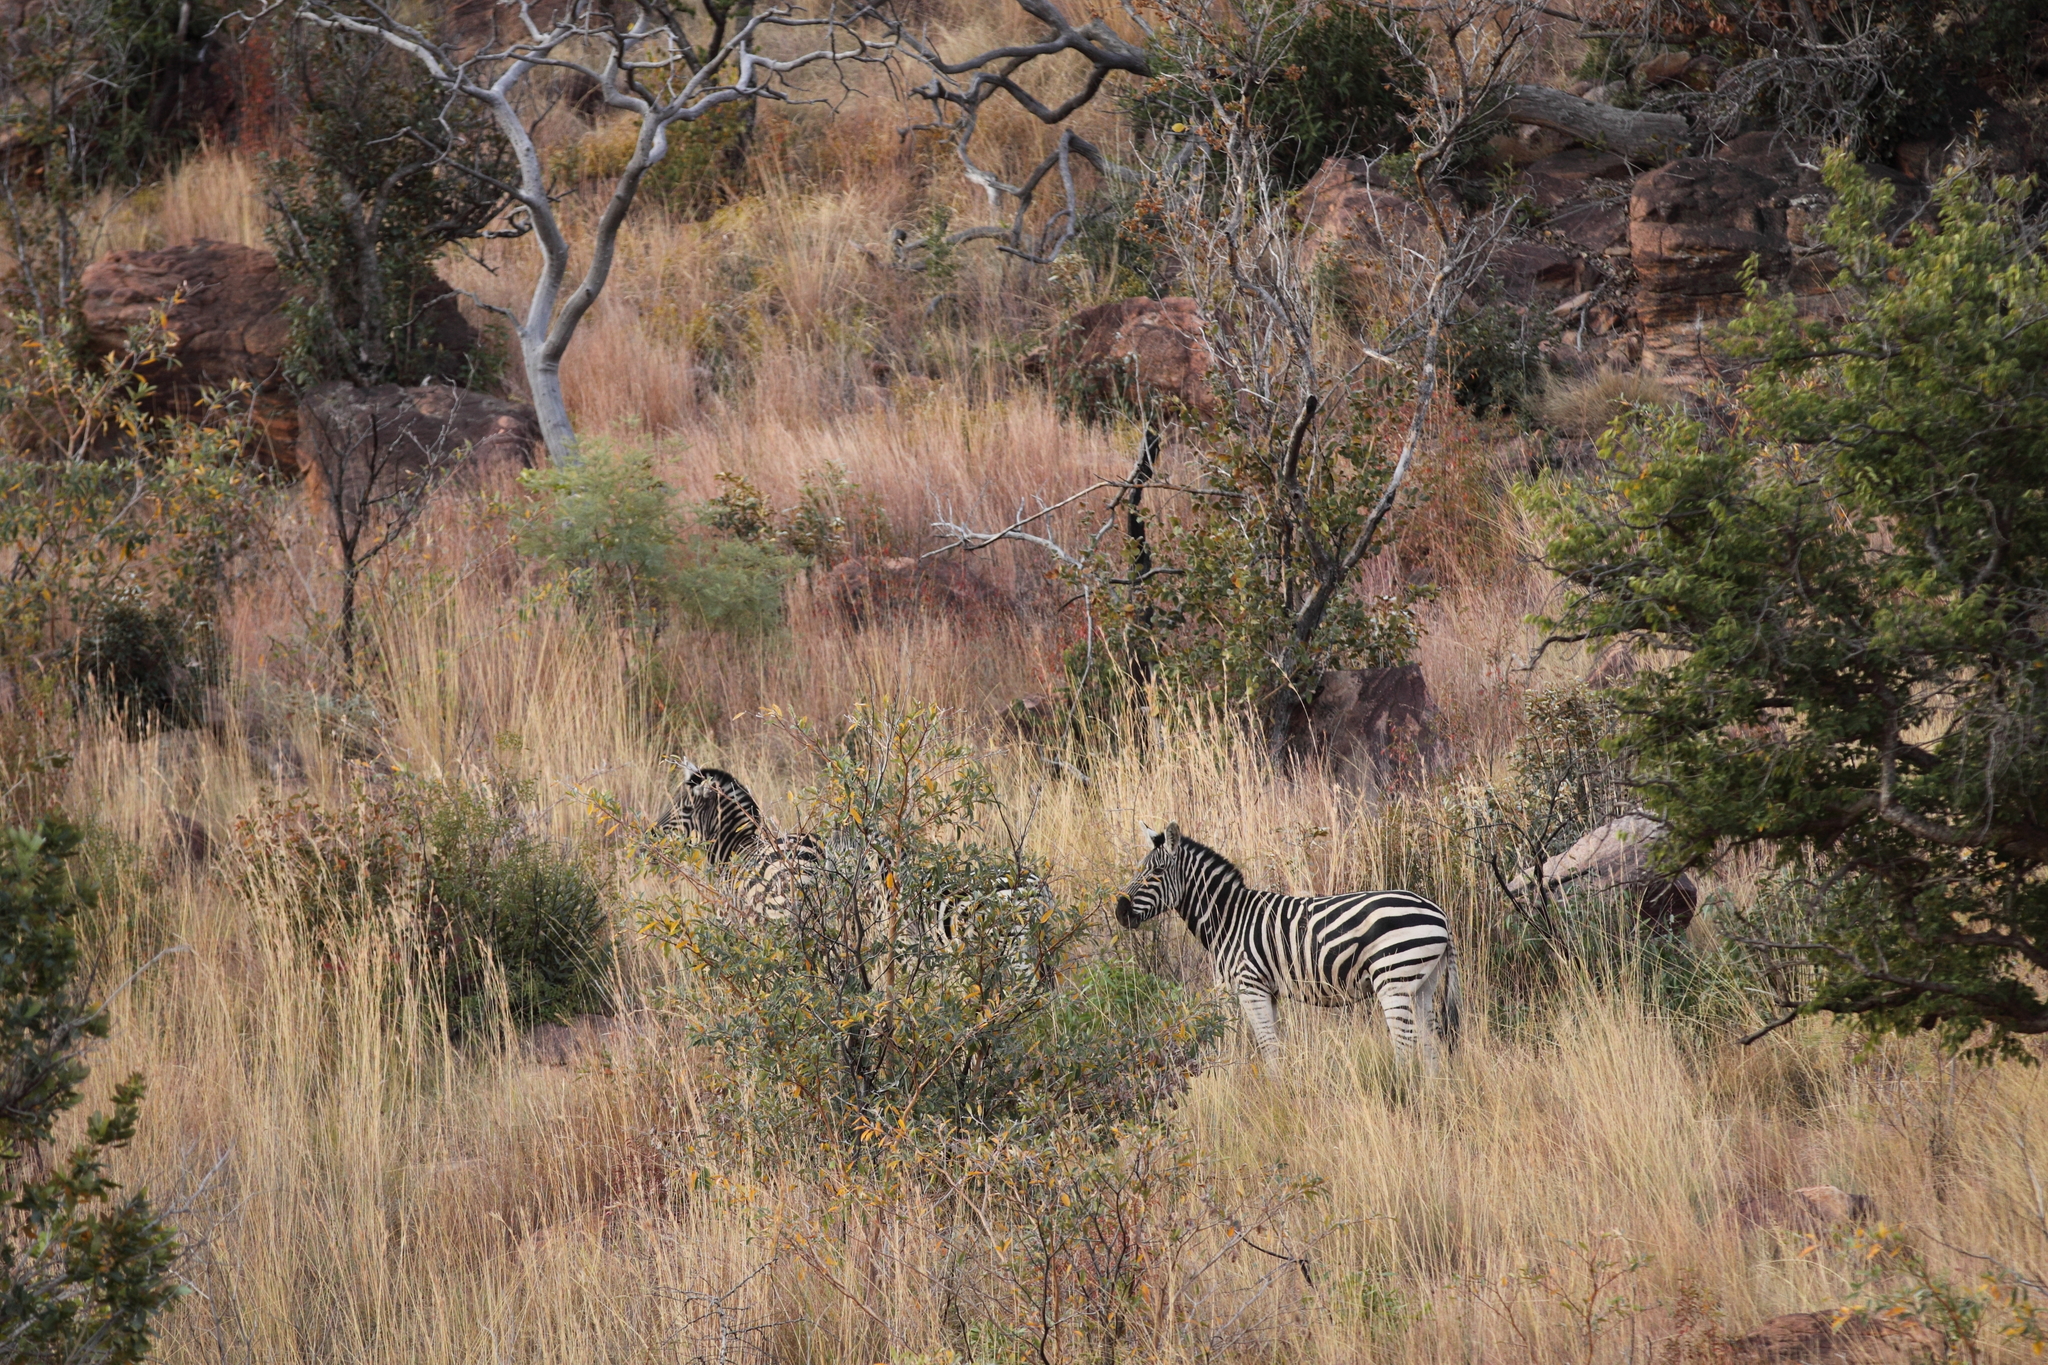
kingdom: Animalia
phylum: Chordata
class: Mammalia
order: Perissodactyla
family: Equidae
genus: Equus
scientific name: Equus quagga
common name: Plains zebra
